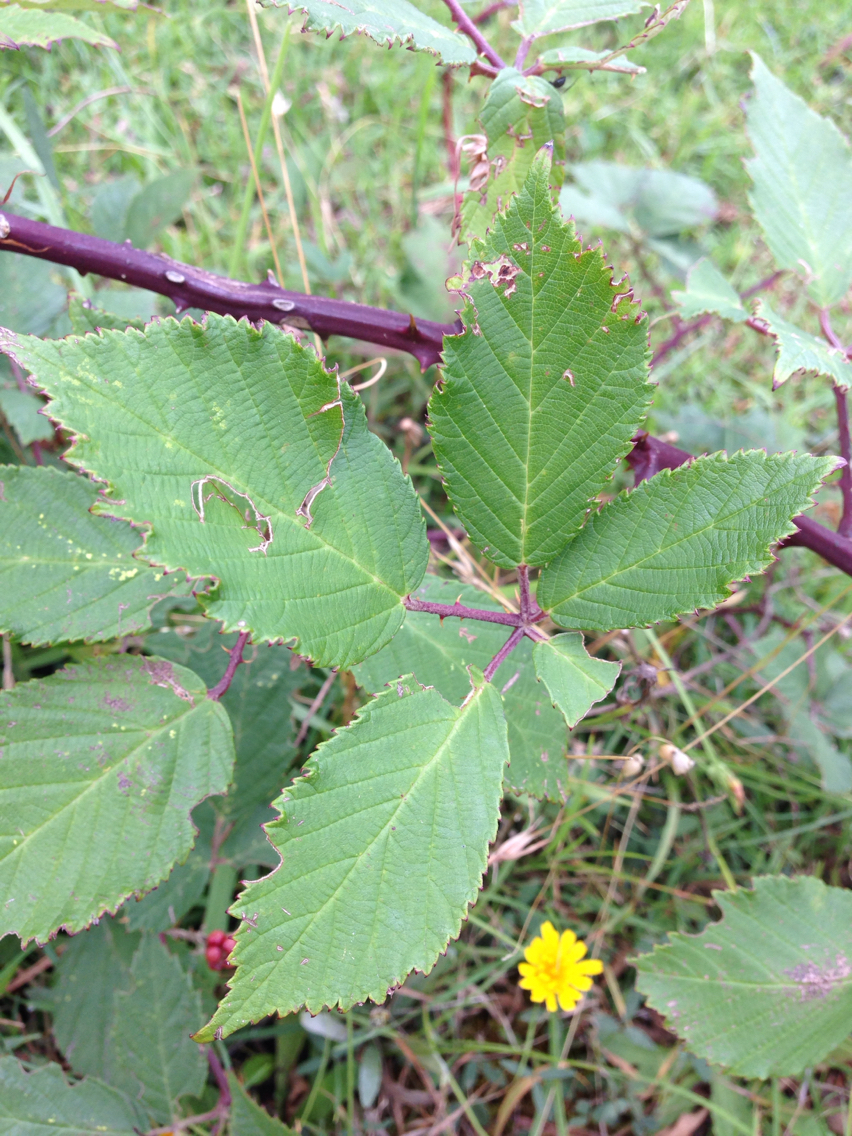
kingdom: Plantae
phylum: Tracheophyta
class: Magnoliopsida
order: Rosales
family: Rosaceae
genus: Rubus
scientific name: Rubus
